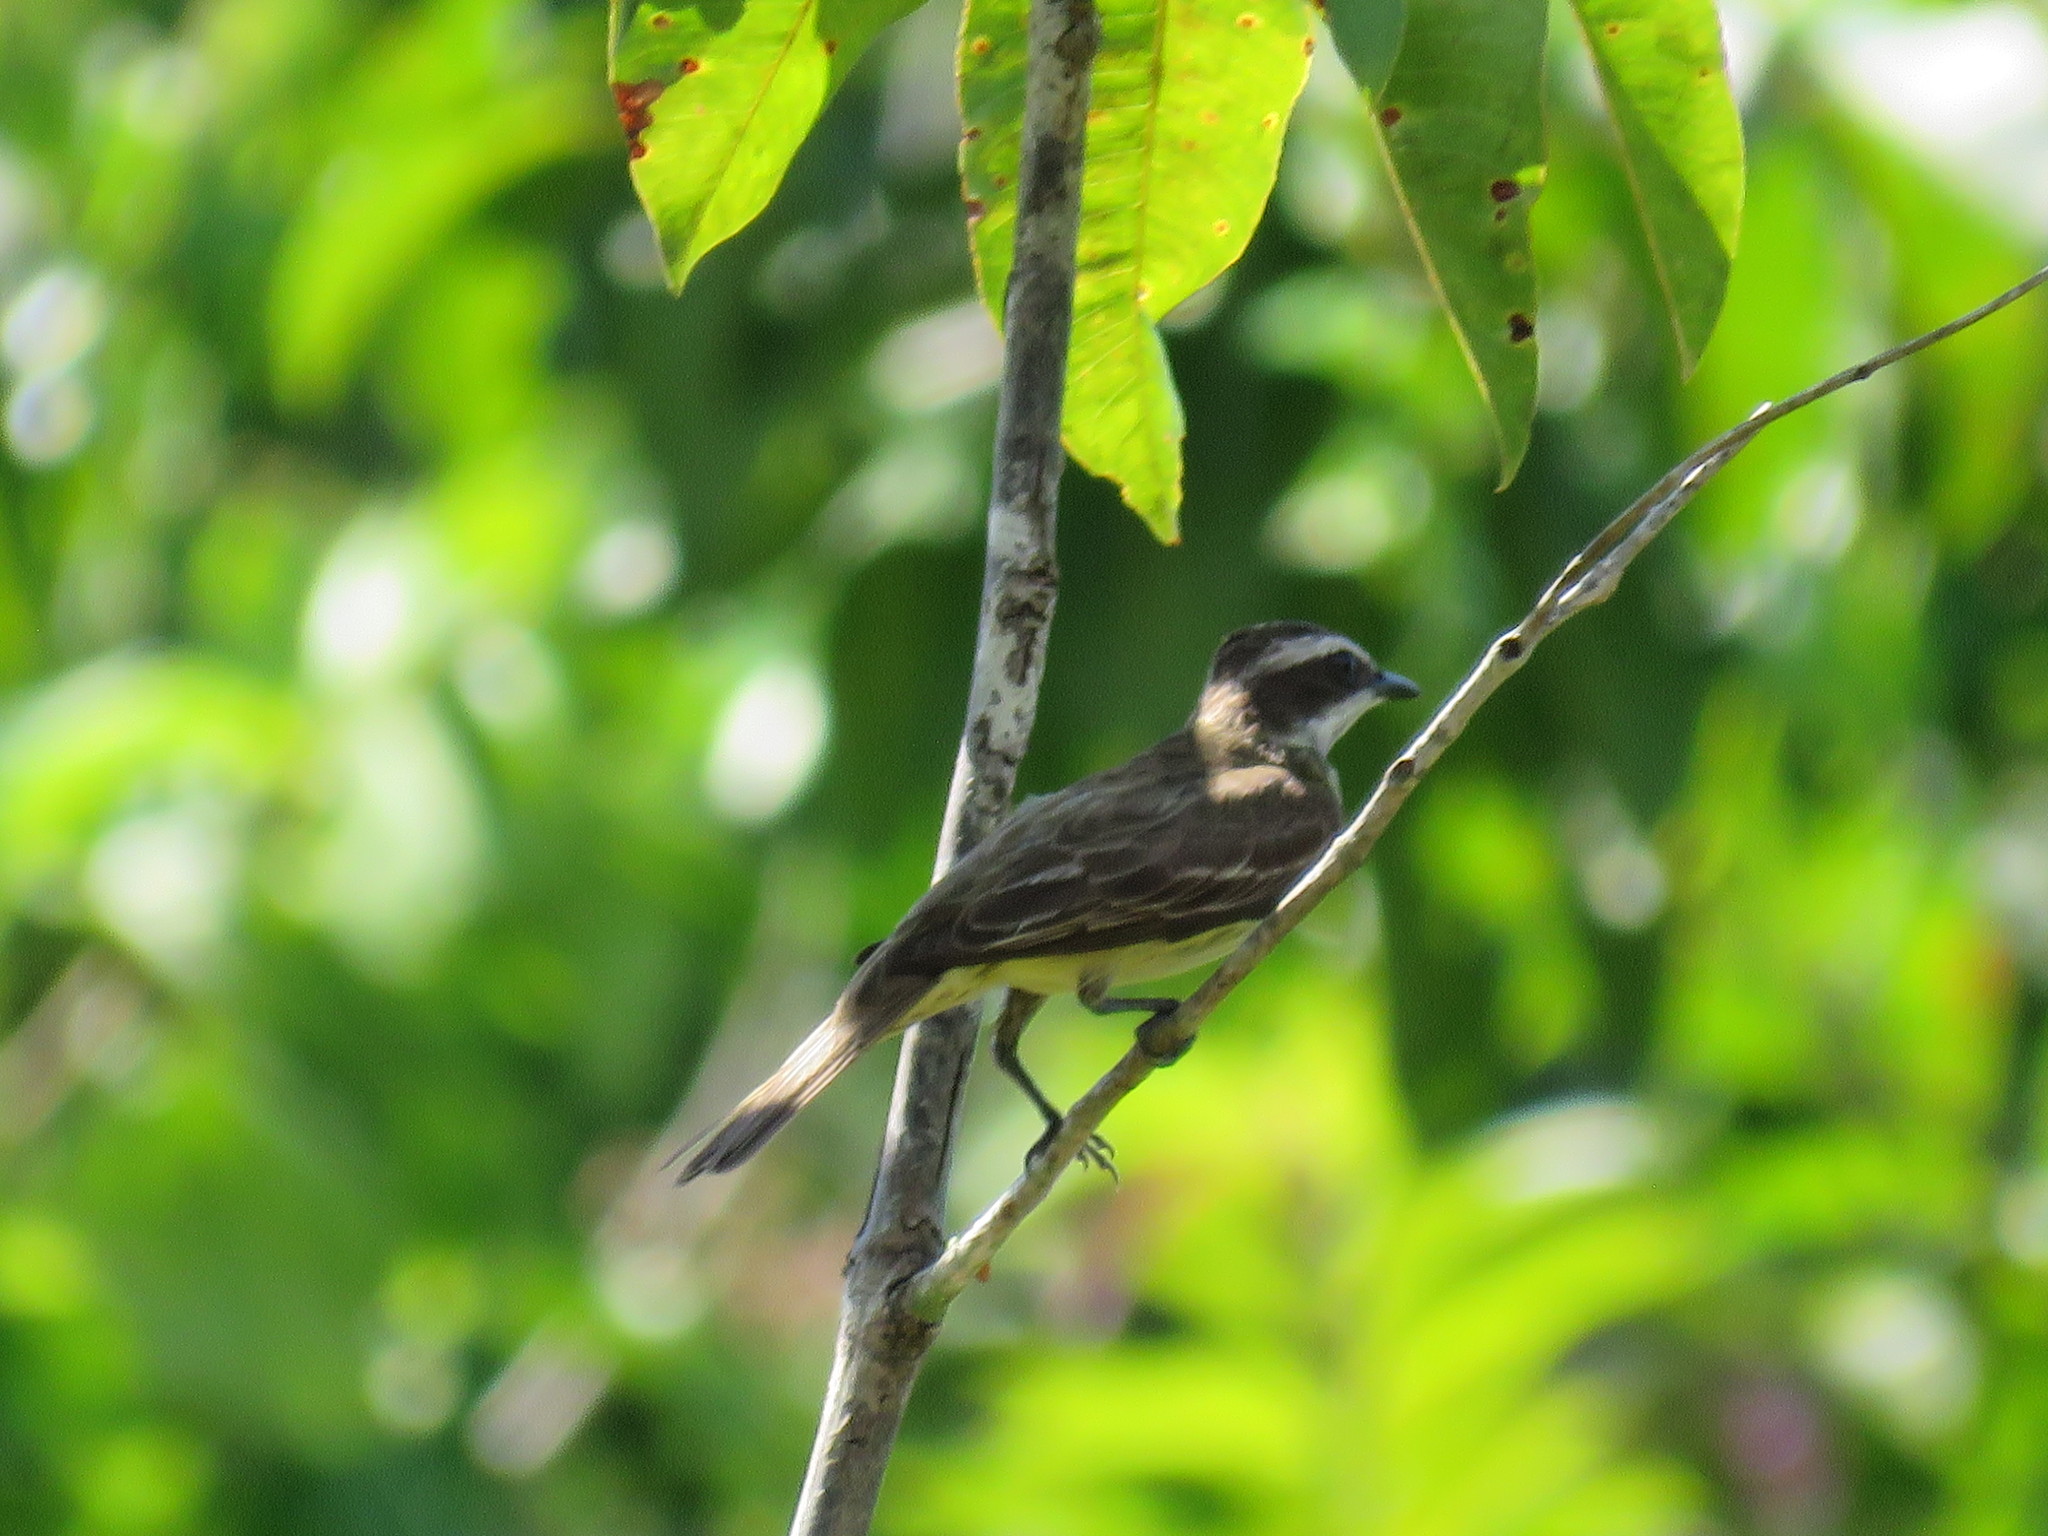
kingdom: Animalia
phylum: Chordata
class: Aves
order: Passeriformes
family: Tyrannidae
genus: Legatus
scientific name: Legatus leucophaius
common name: Piratic flycatcher
